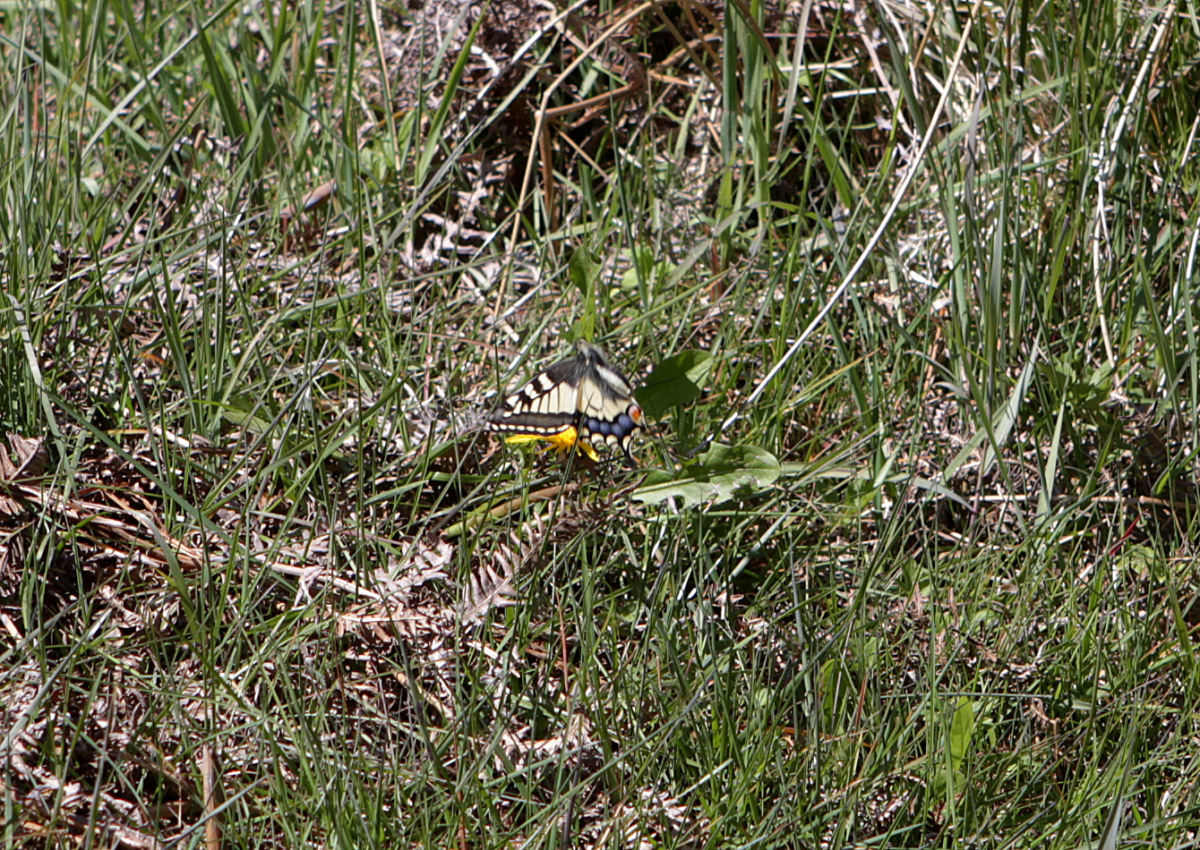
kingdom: Animalia
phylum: Arthropoda
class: Insecta
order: Lepidoptera
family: Papilionidae
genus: Papilio
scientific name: Papilio machaon
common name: Swallowtail
